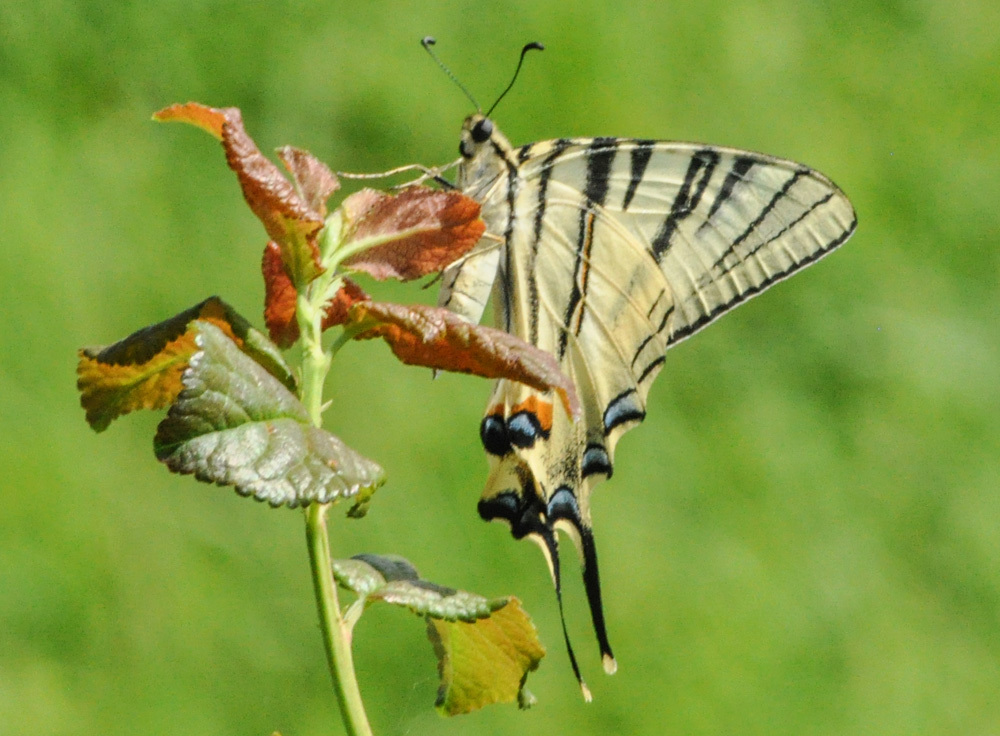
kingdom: Animalia
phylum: Arthropoda
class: Insecta
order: Lepidoptera
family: Papilionidae
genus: Iphiclides
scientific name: Iphiclides podalirius
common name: Scarce swallowtail
